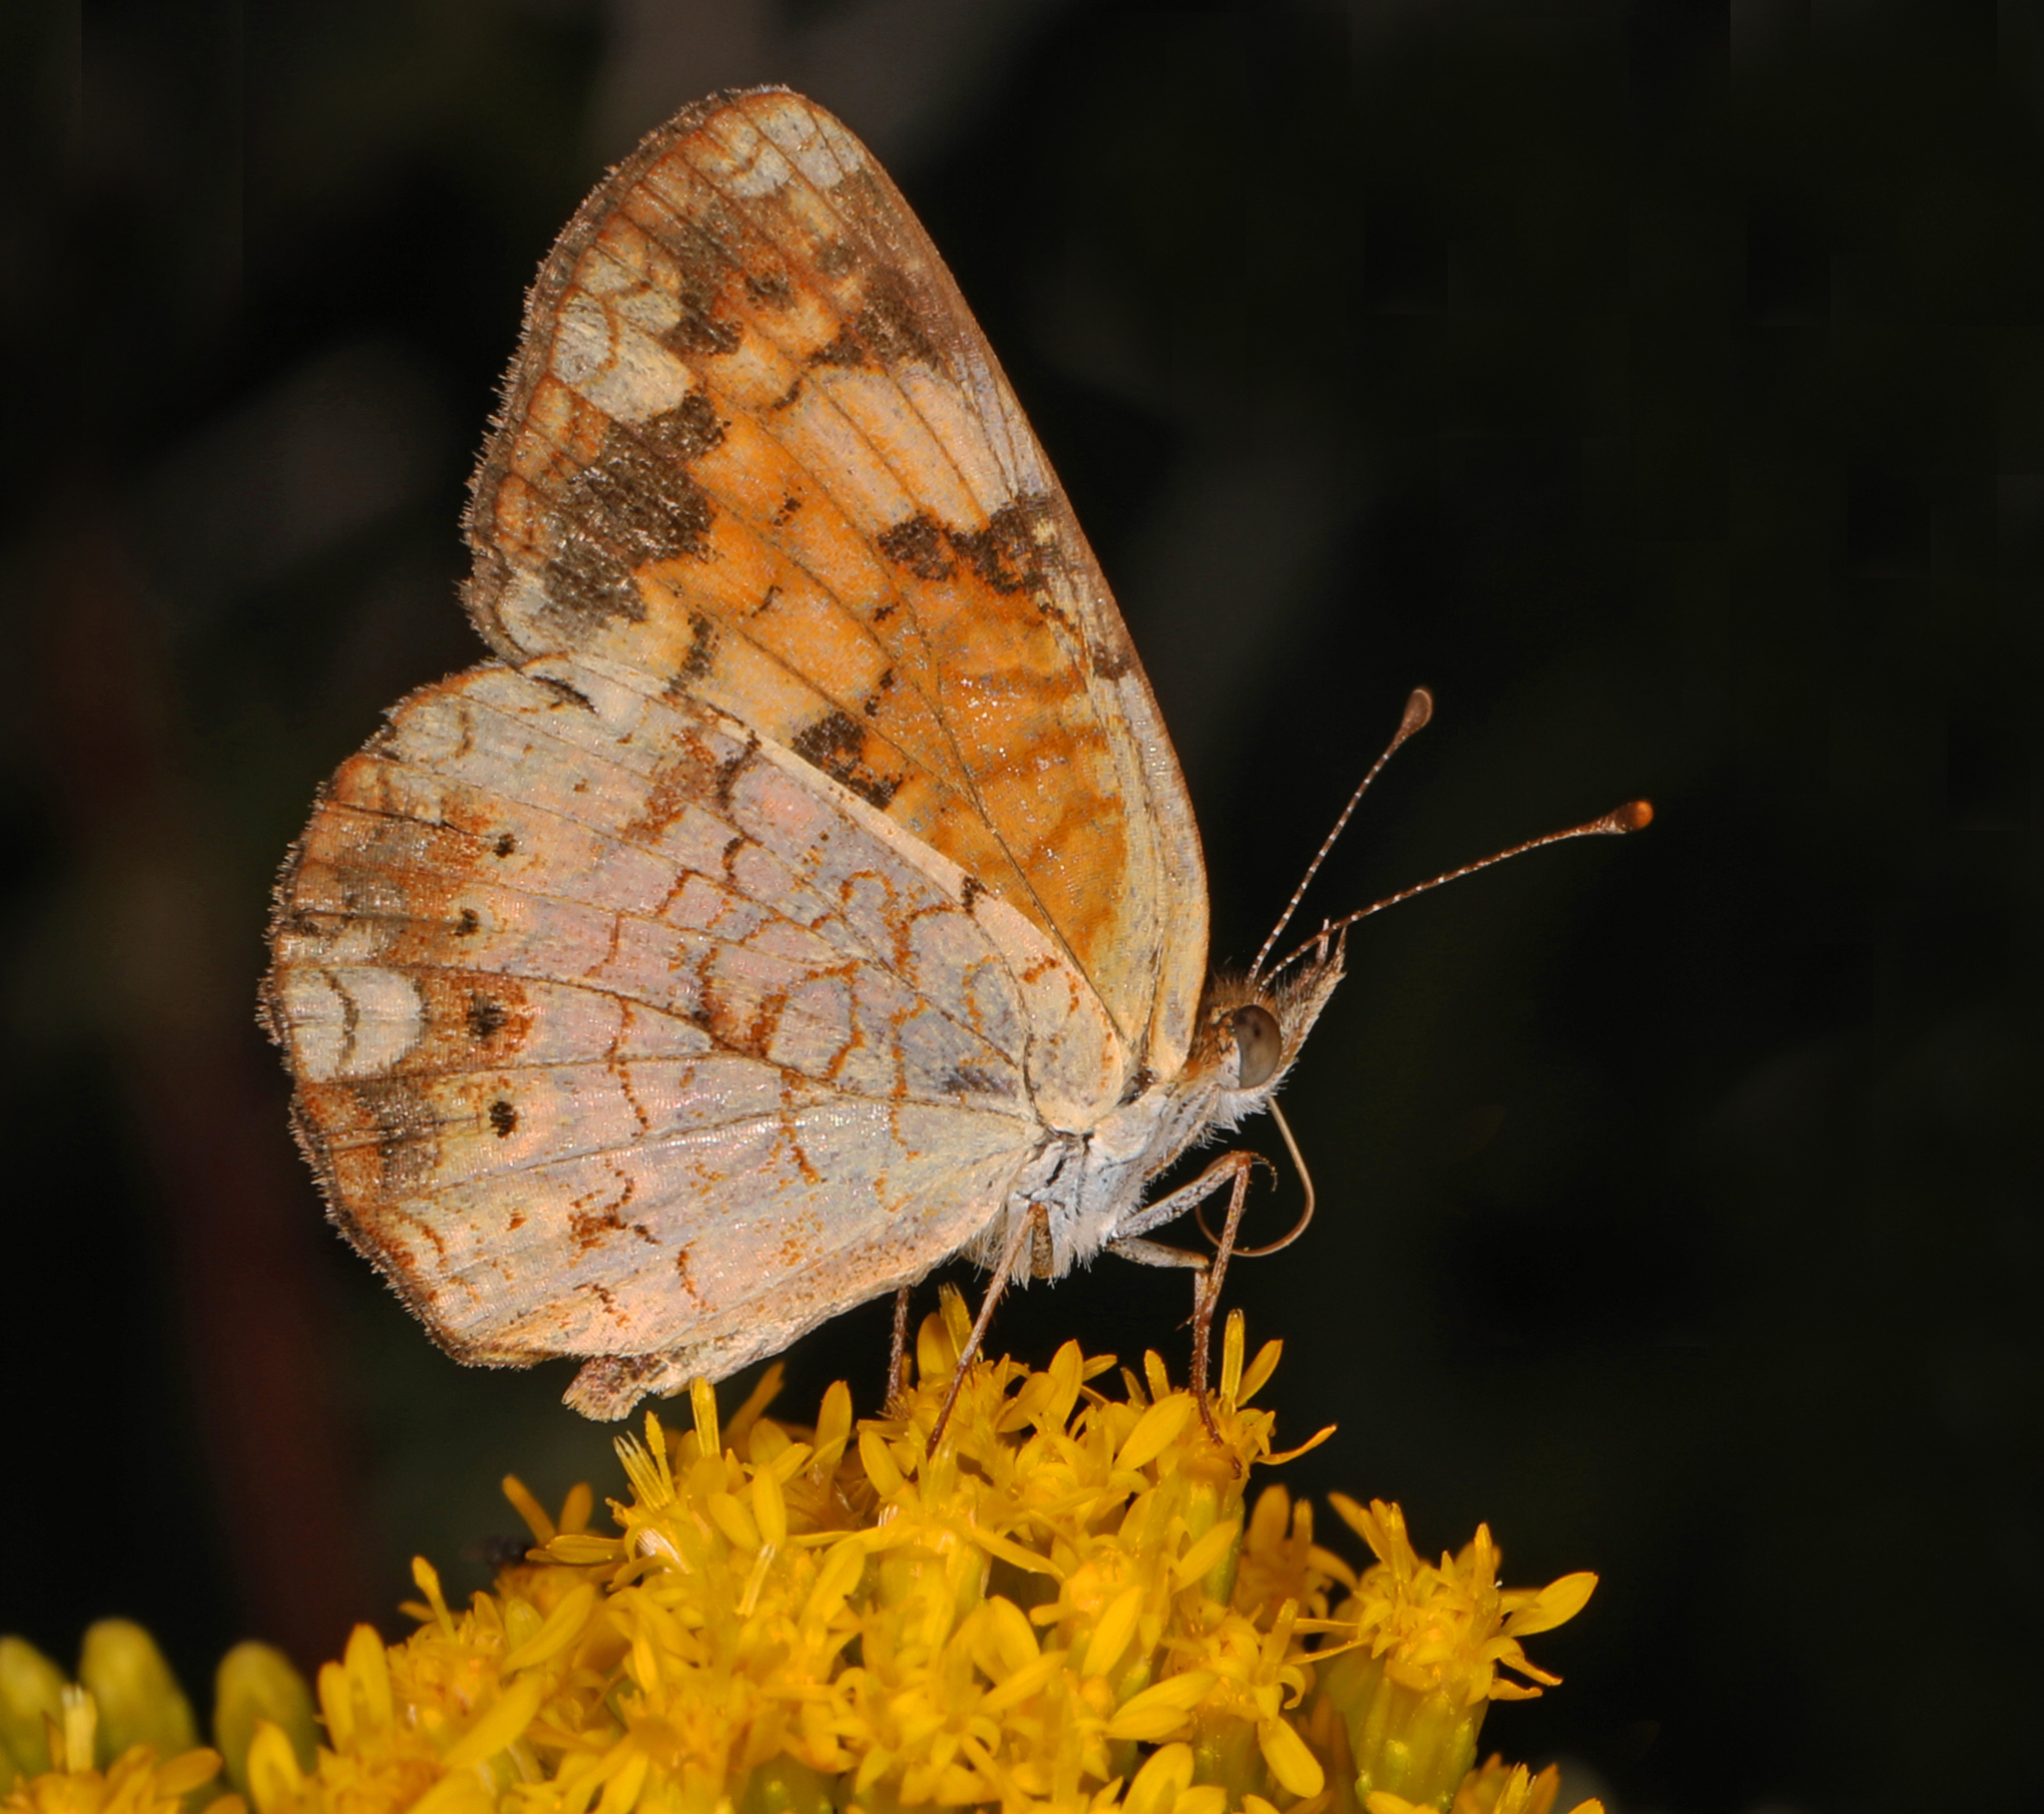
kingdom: Animalia
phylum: Arthropoda
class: Insecta
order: Lepidoptera
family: Nymphalidae
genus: Phyciodes
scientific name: Phyciodes tharos
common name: Pearl crescent
